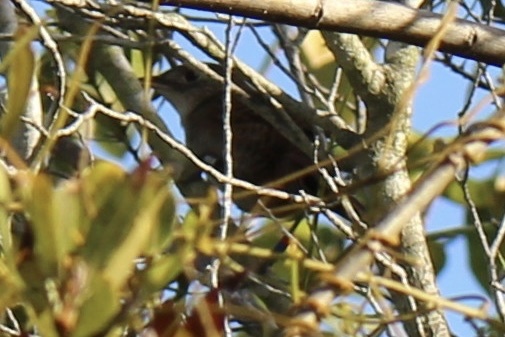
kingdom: Animalia
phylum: Chordata
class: Aves
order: Passeriformes
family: Troglodytidae
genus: Ferminia
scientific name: Ferminia cerverai
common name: Zapata wren
